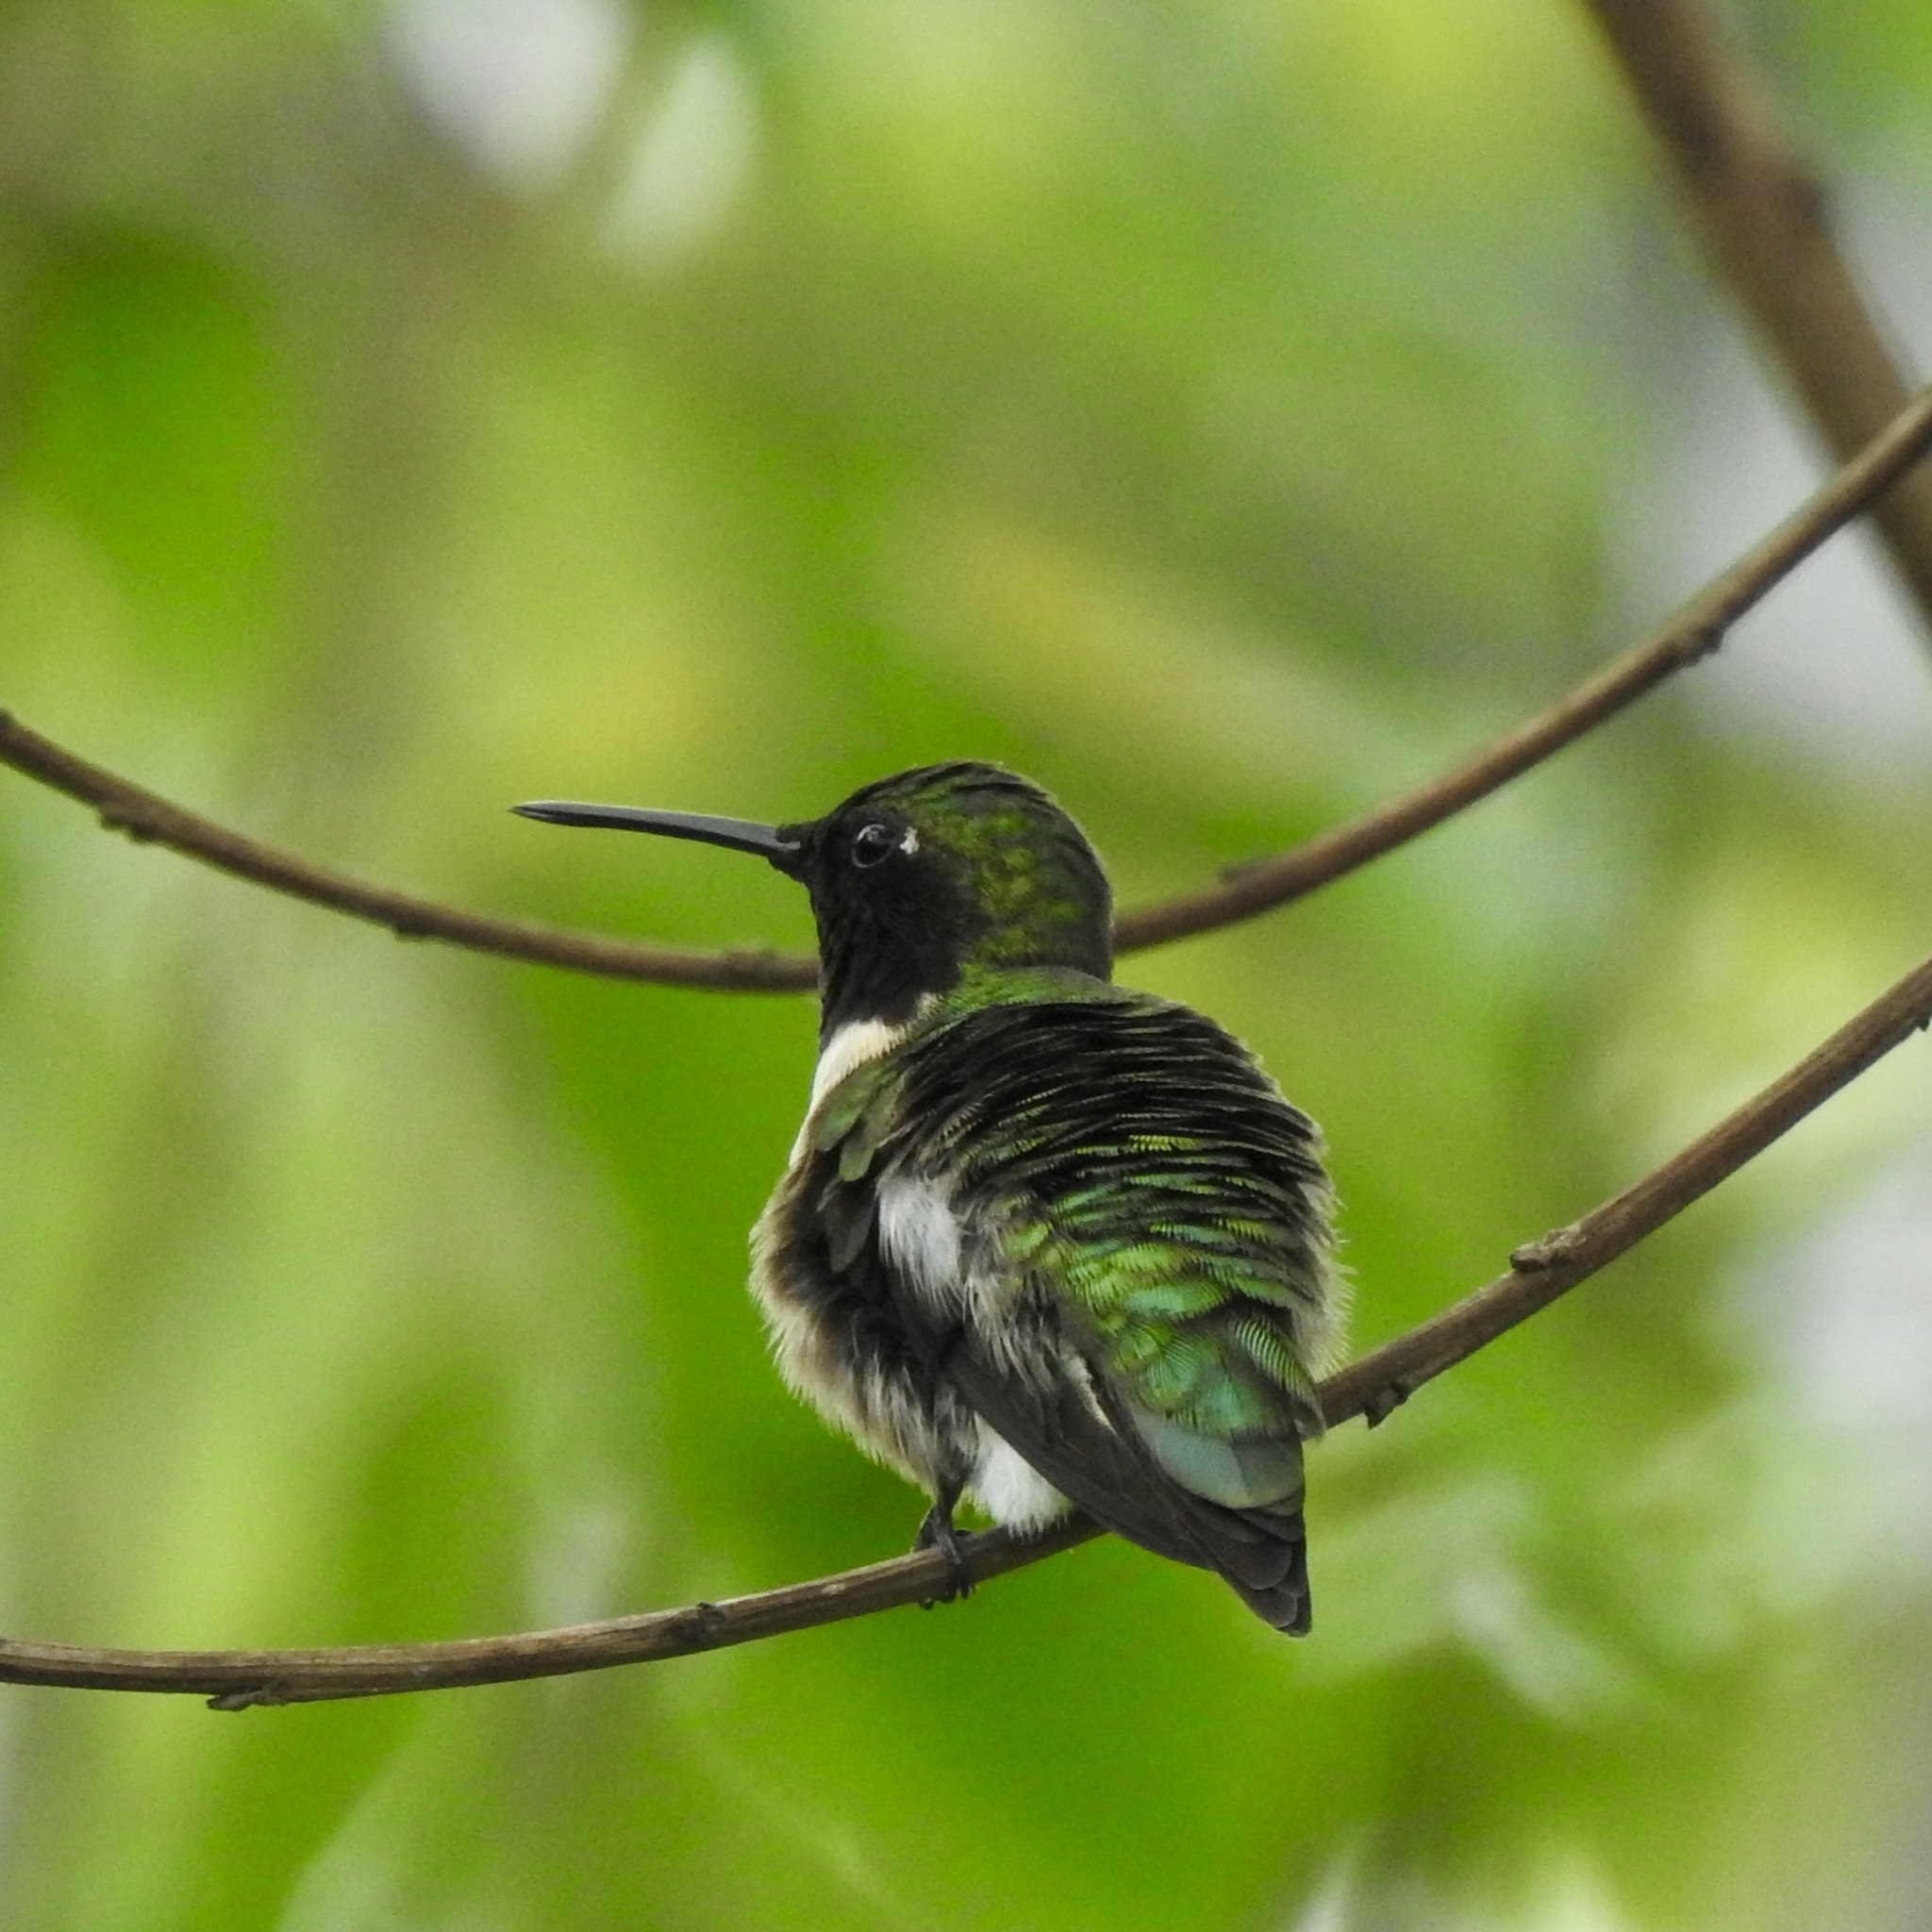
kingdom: Animalia
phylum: Chordata
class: Aves
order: Apodiformes
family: Trochilidae
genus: Archilochus
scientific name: Archilochus colubris
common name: Ruby-throated hummingbird
